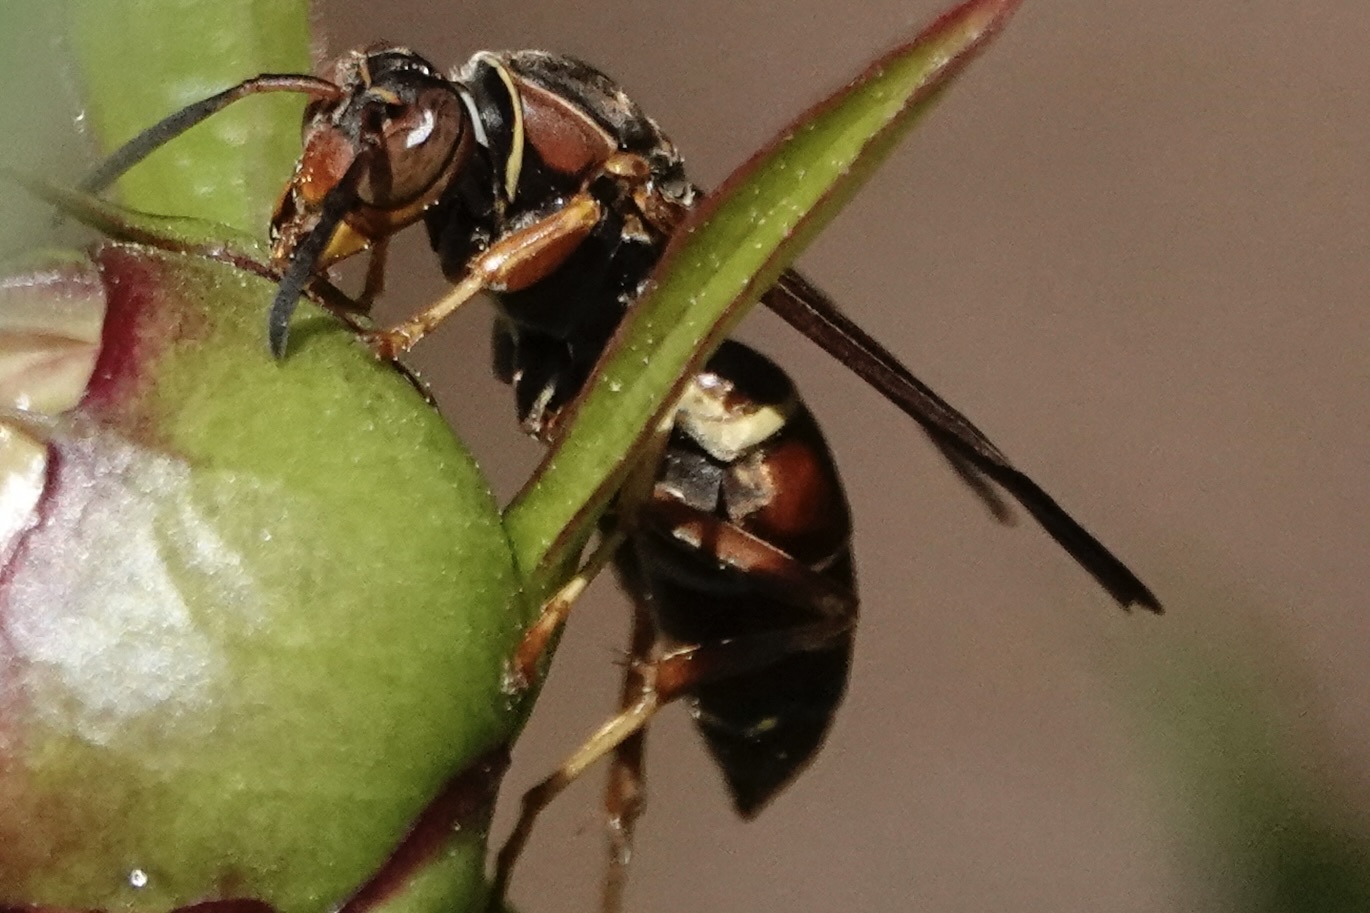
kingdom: Animalia
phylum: Arthropoda
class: Insecta
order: Hymenoptera
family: Eumenidae
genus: Polistes
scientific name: Polistes fuscatus
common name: Dark paper wasp
